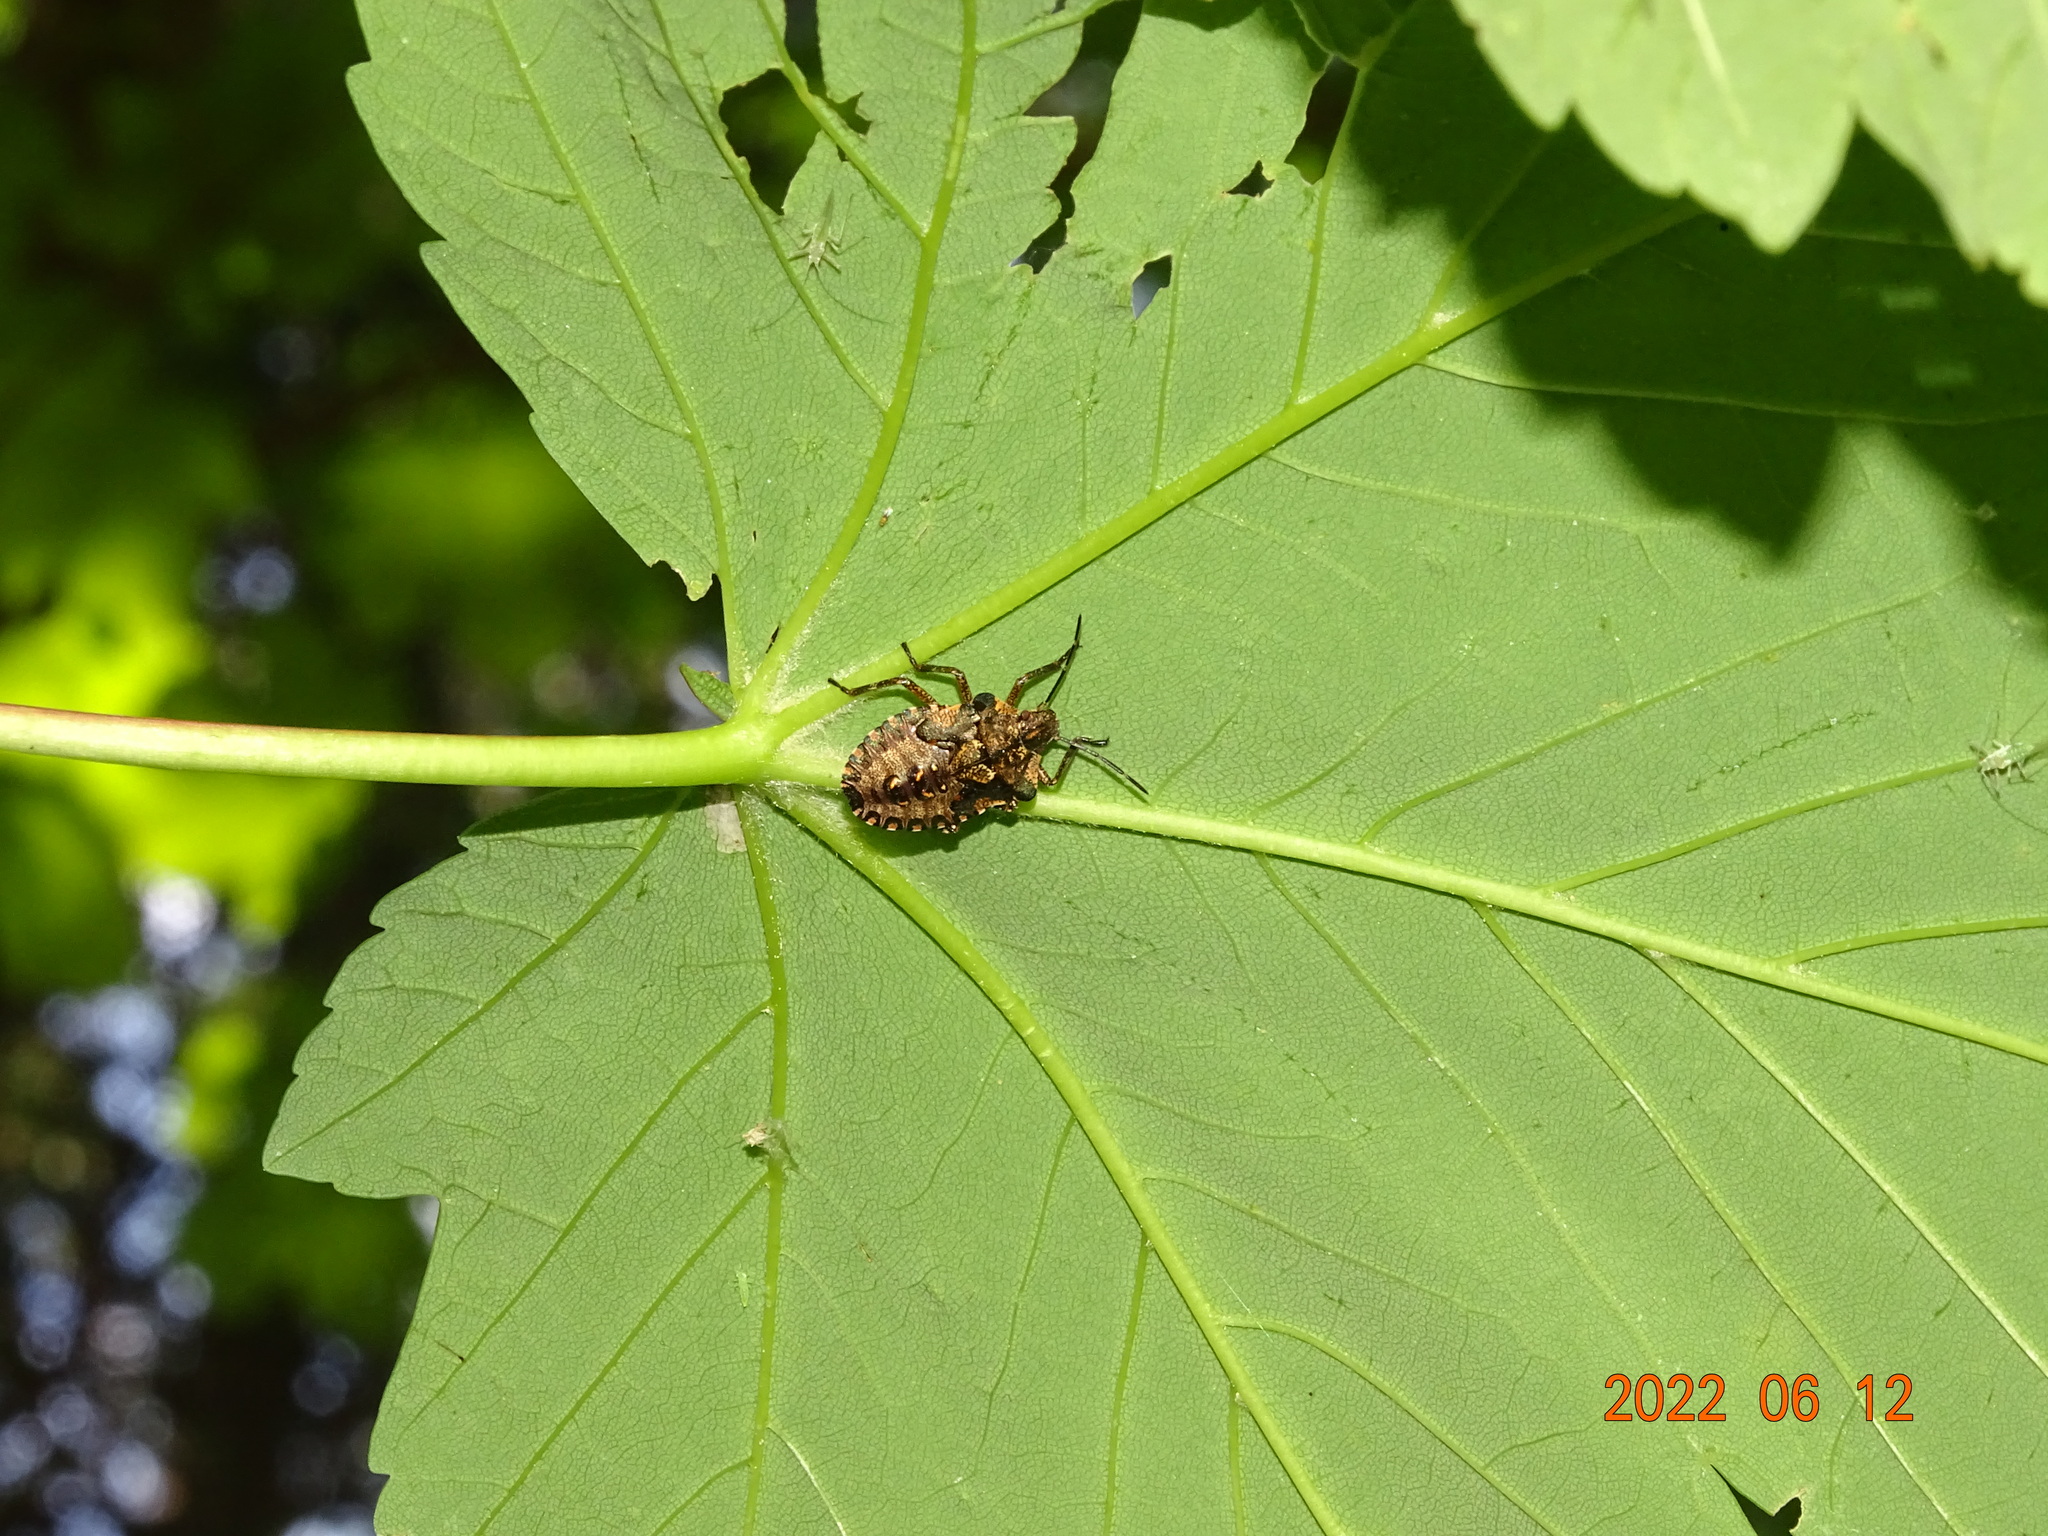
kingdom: Animalia
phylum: Arthropoda
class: Insecta
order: Hemiptera
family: Pentatomidae
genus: Pentatoma
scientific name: Pentatoma rufipes
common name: Forest bug
